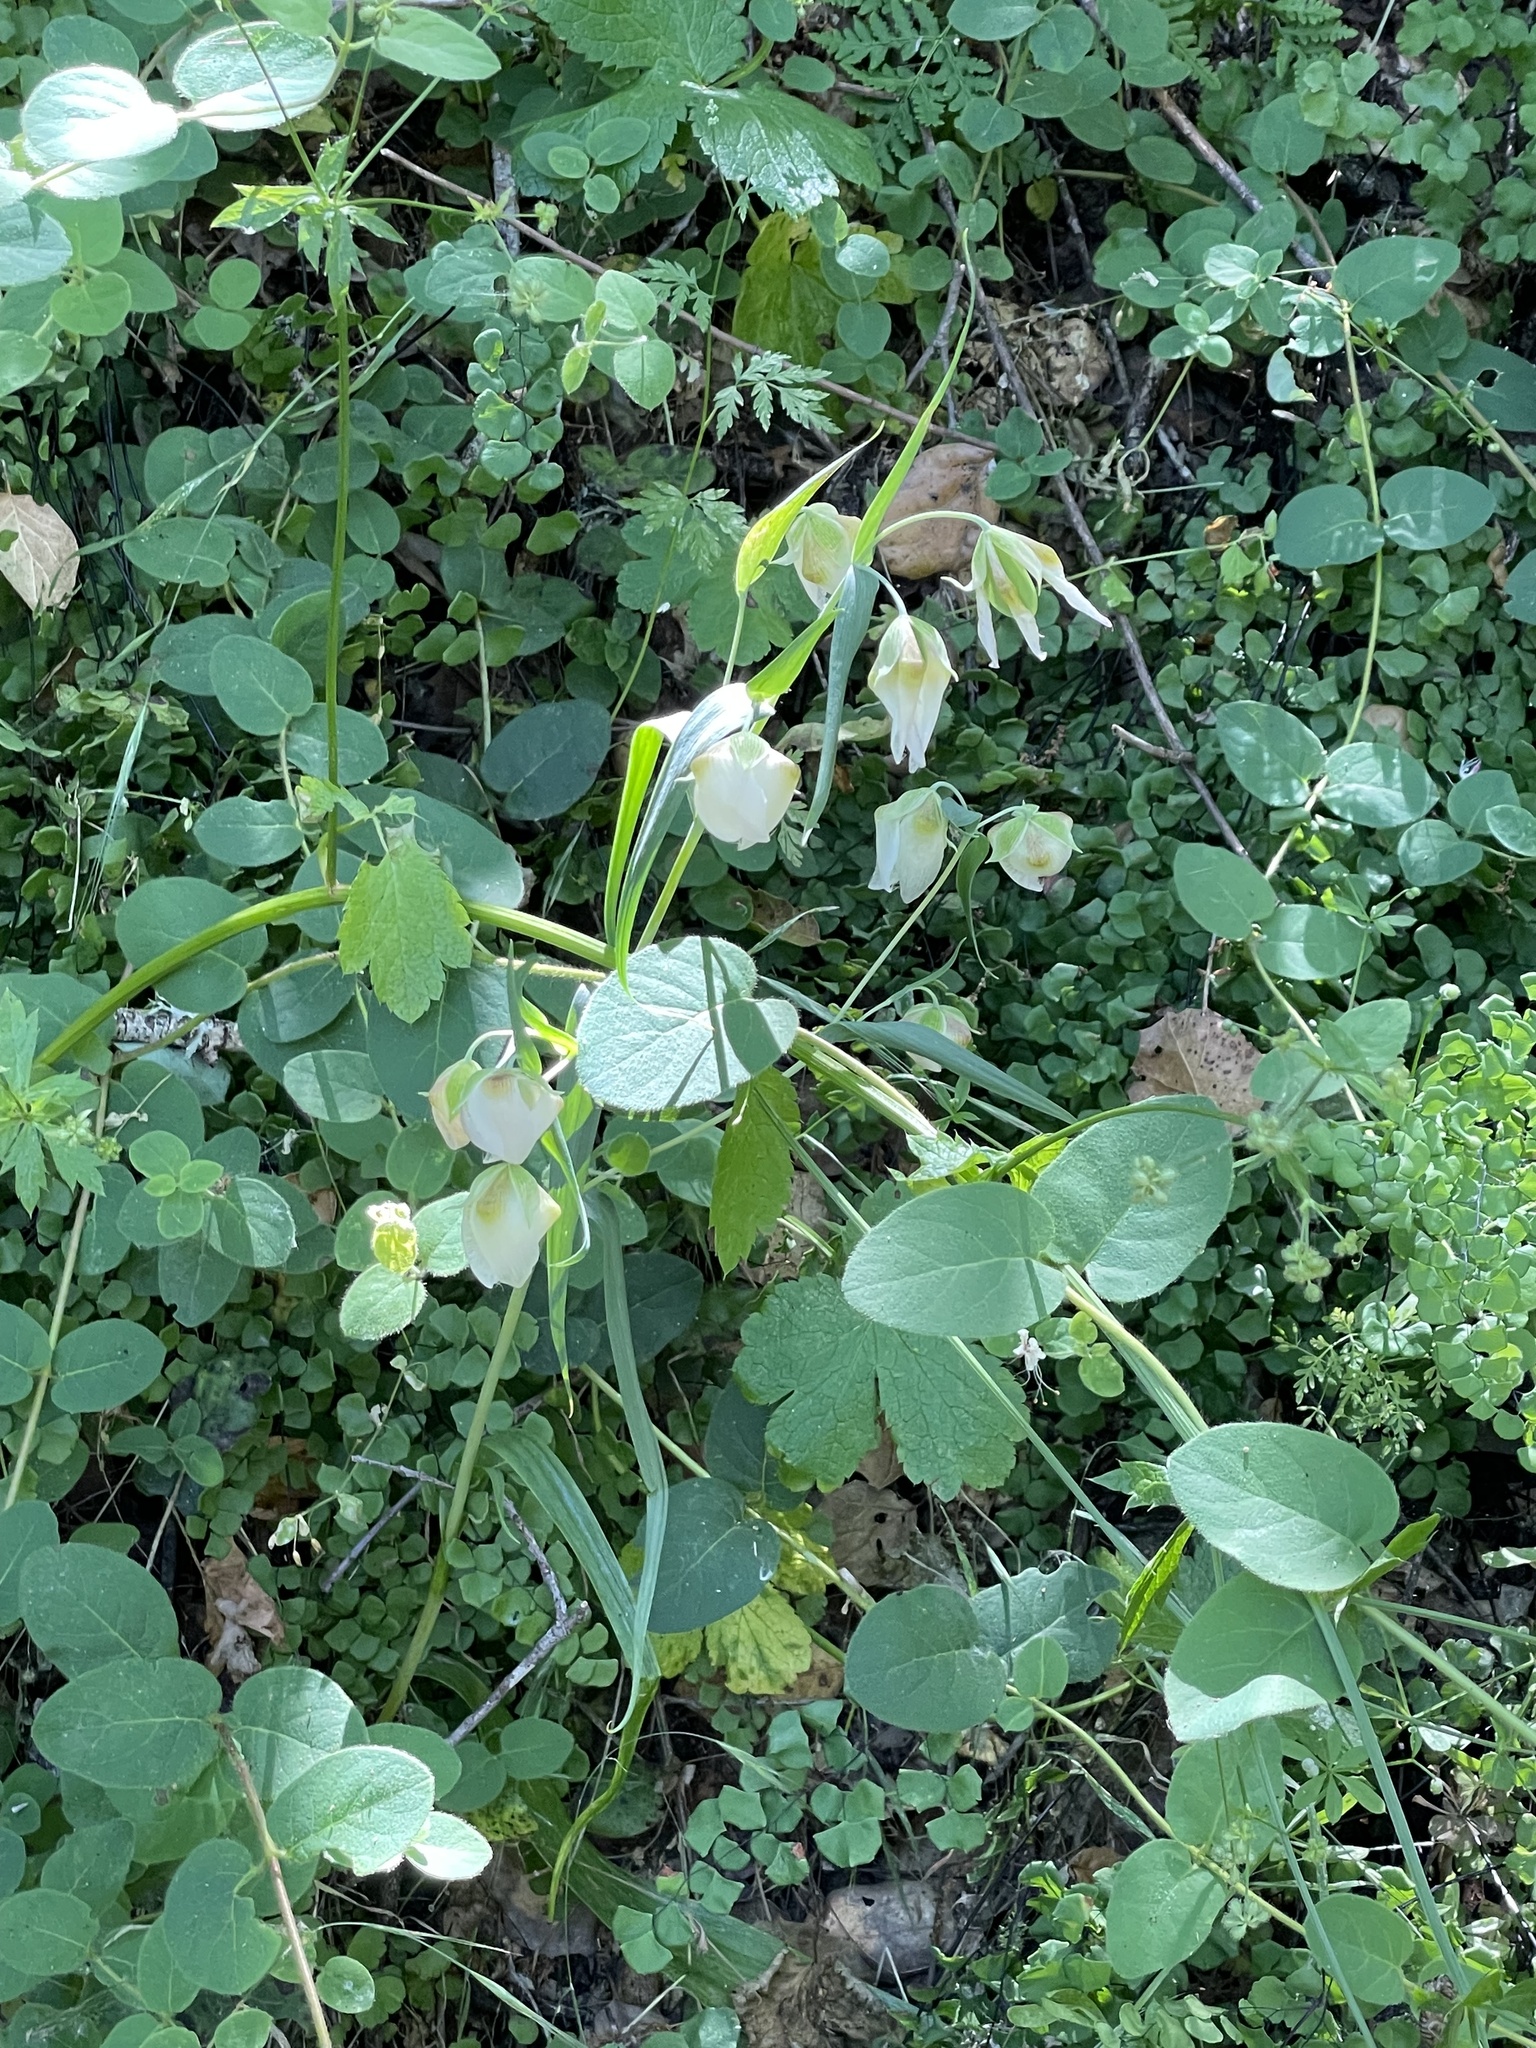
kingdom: Plantae
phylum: Tracheophyta
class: Liliopsida
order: Liliales
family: Liliaceae
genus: Calochortus
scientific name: Calochortus albus
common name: Fairy-lantern
